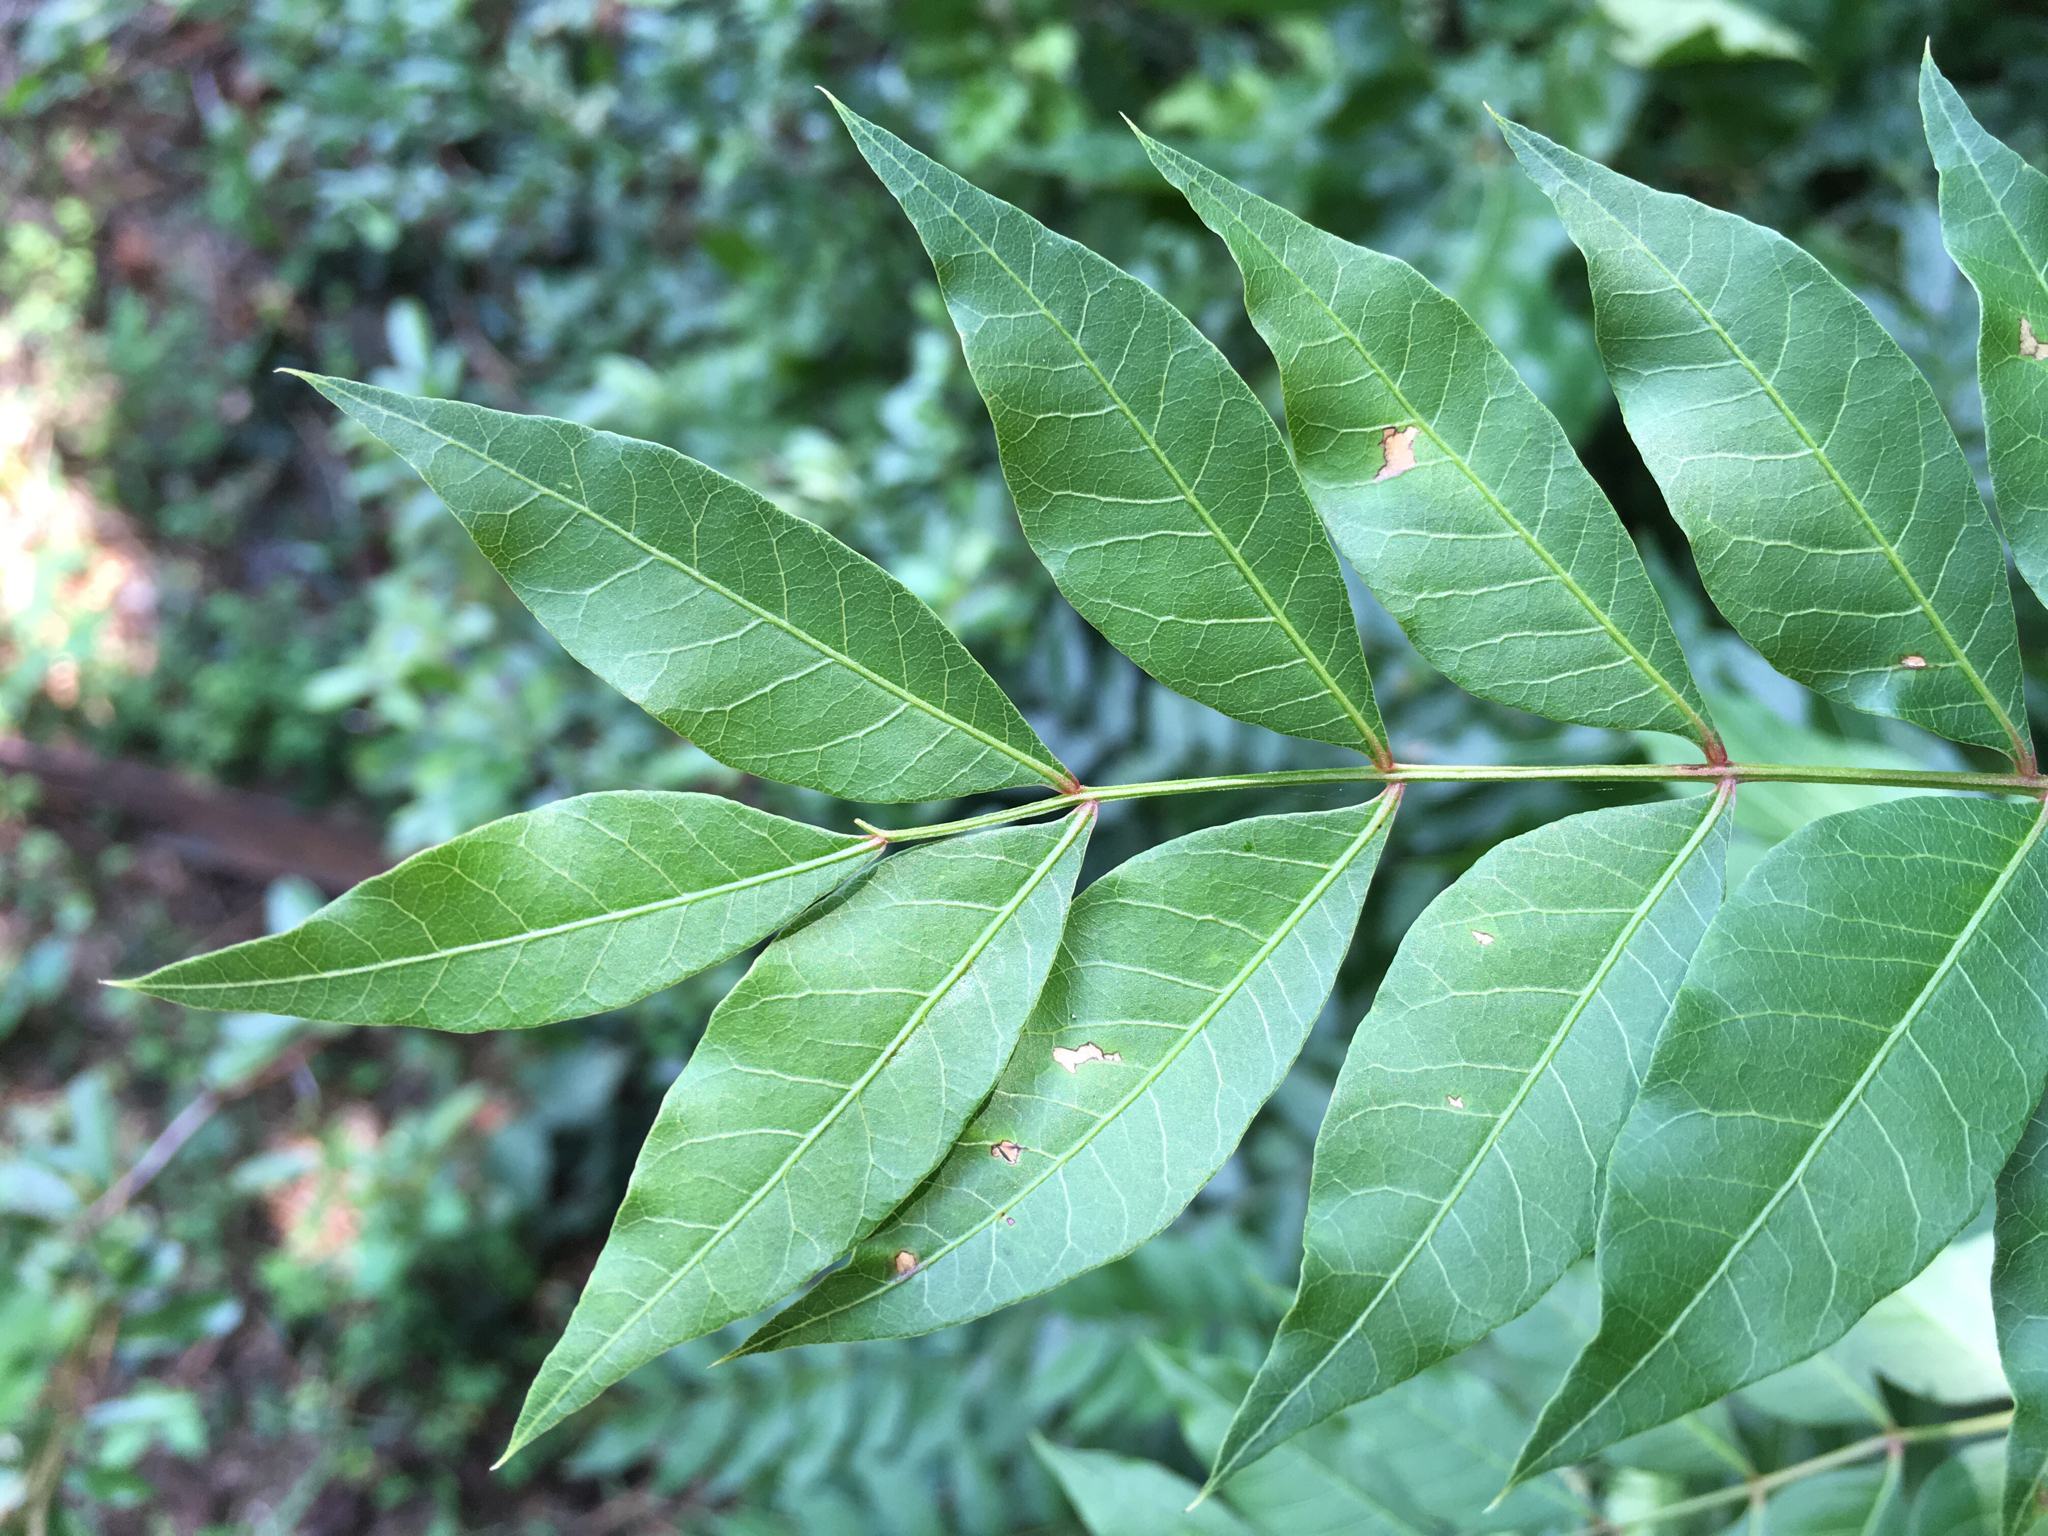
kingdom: Plantae
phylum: Tracheophyta
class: Magnoliopsida
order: Sapindales
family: Anacardiaceae
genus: Pistacia
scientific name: Pistacia chinensis
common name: Chinese pistache
